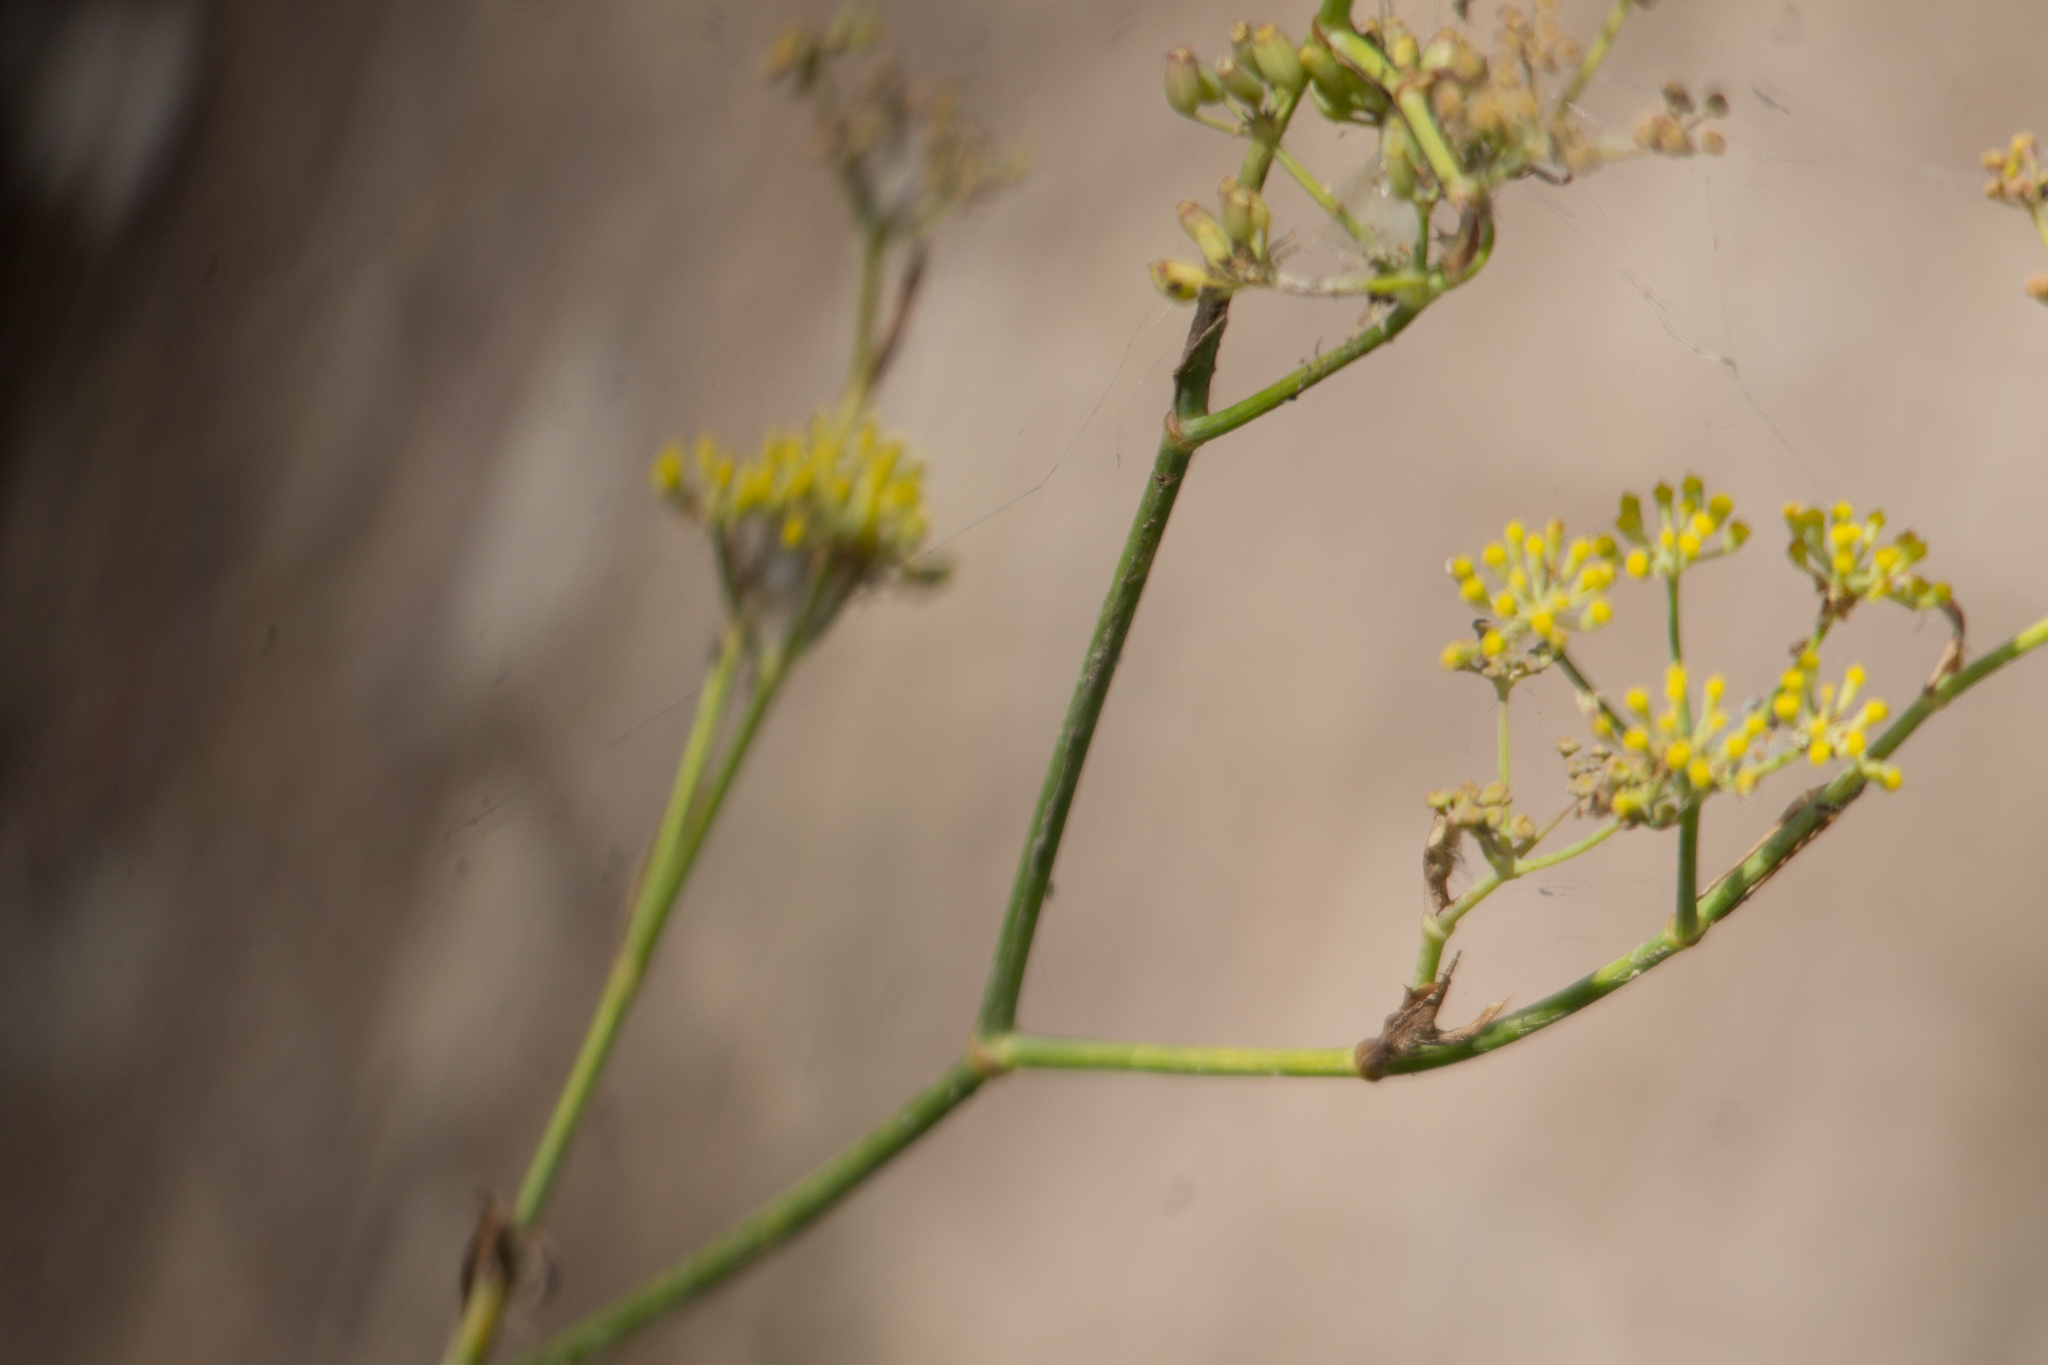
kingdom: Plantae
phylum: Tracheophyta
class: Magnoliopsida
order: Apiales
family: Apiaceae
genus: Foeniculum
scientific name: Foeniculum vulgare
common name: Fennel
